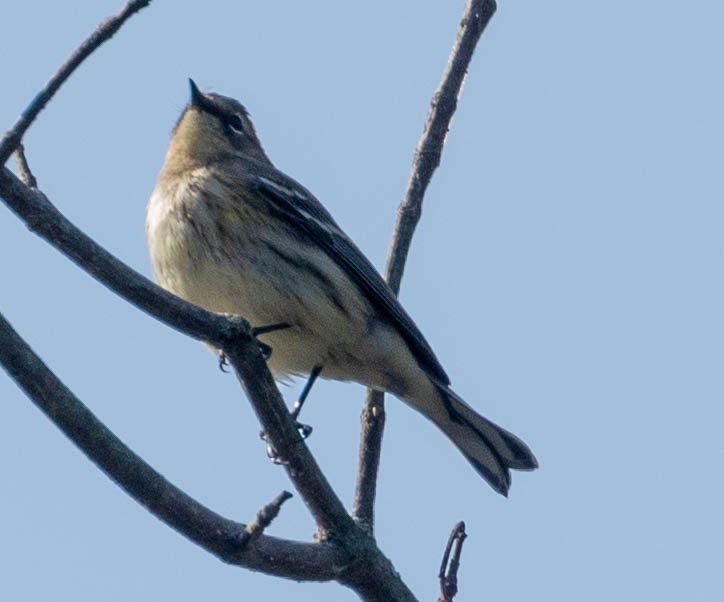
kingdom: Animalia
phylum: Chordata
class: Aves
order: Passeriformes
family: Parulidae
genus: Setophaga
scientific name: Setophaga coronata
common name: Myrtle warbler
